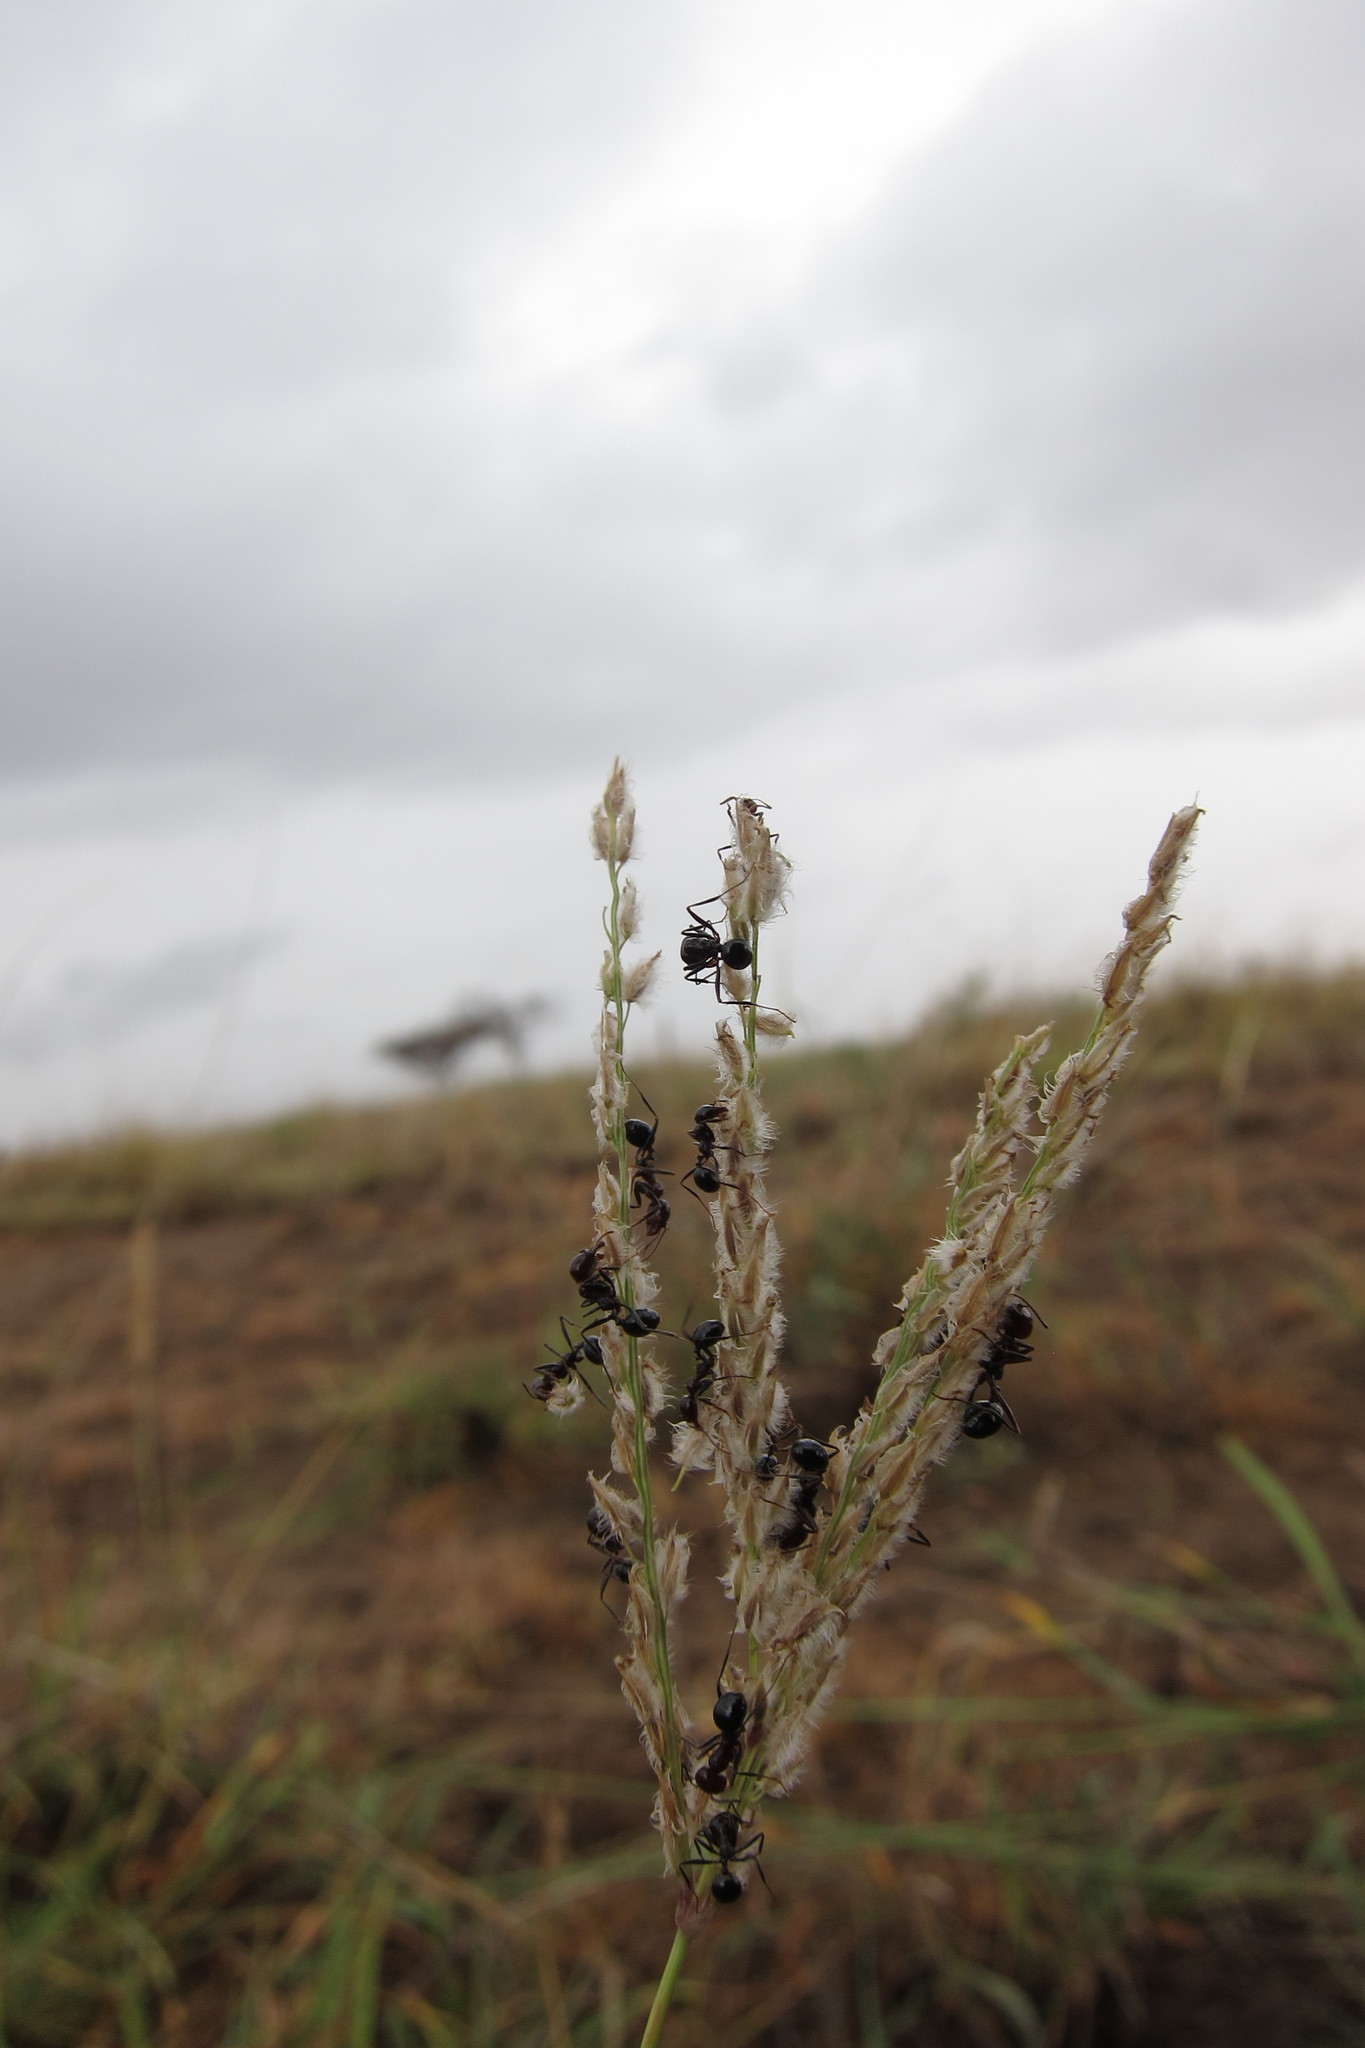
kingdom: Plantae
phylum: Tracheophyta
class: Liliopsida
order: Poales
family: Poaceae
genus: Digitaria
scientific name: Digitaria milanjiana
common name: Madagascar crabgrass
